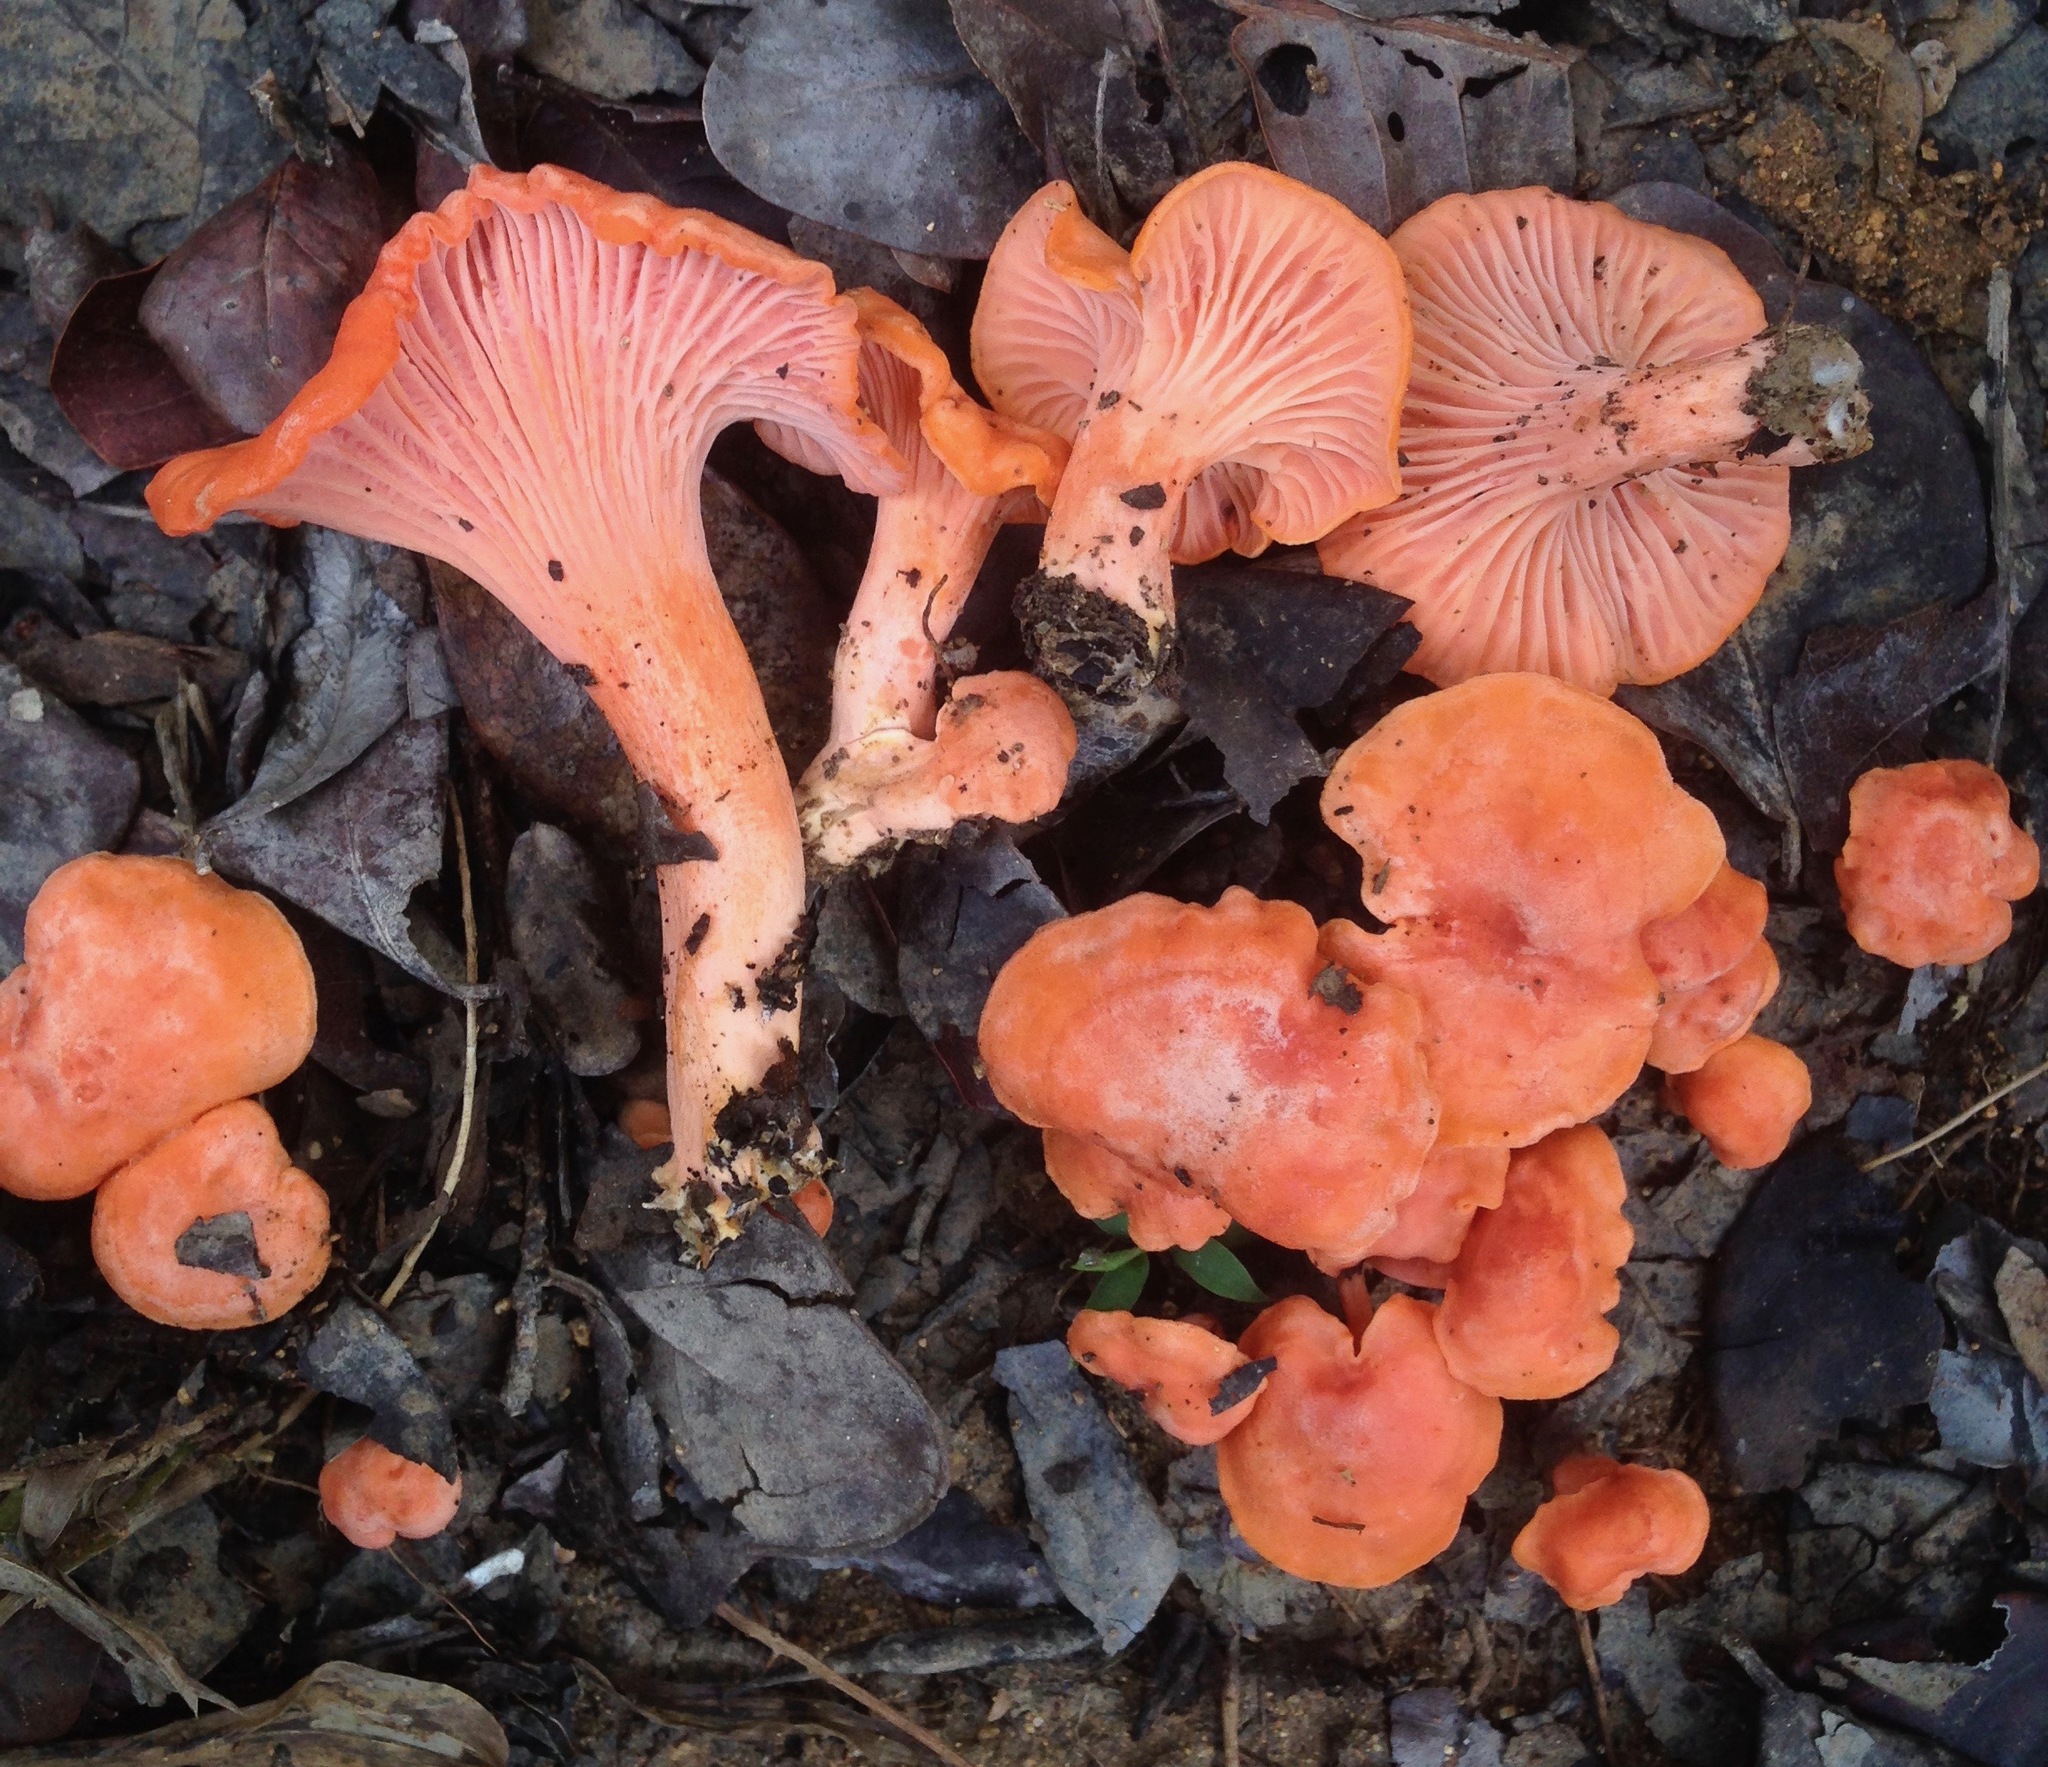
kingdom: Fungi
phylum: Basidiomycota
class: Agaricomycetes
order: Cantharellales
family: Hydnaceae
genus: Cantharellus
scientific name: Cantharellus coccolobae
